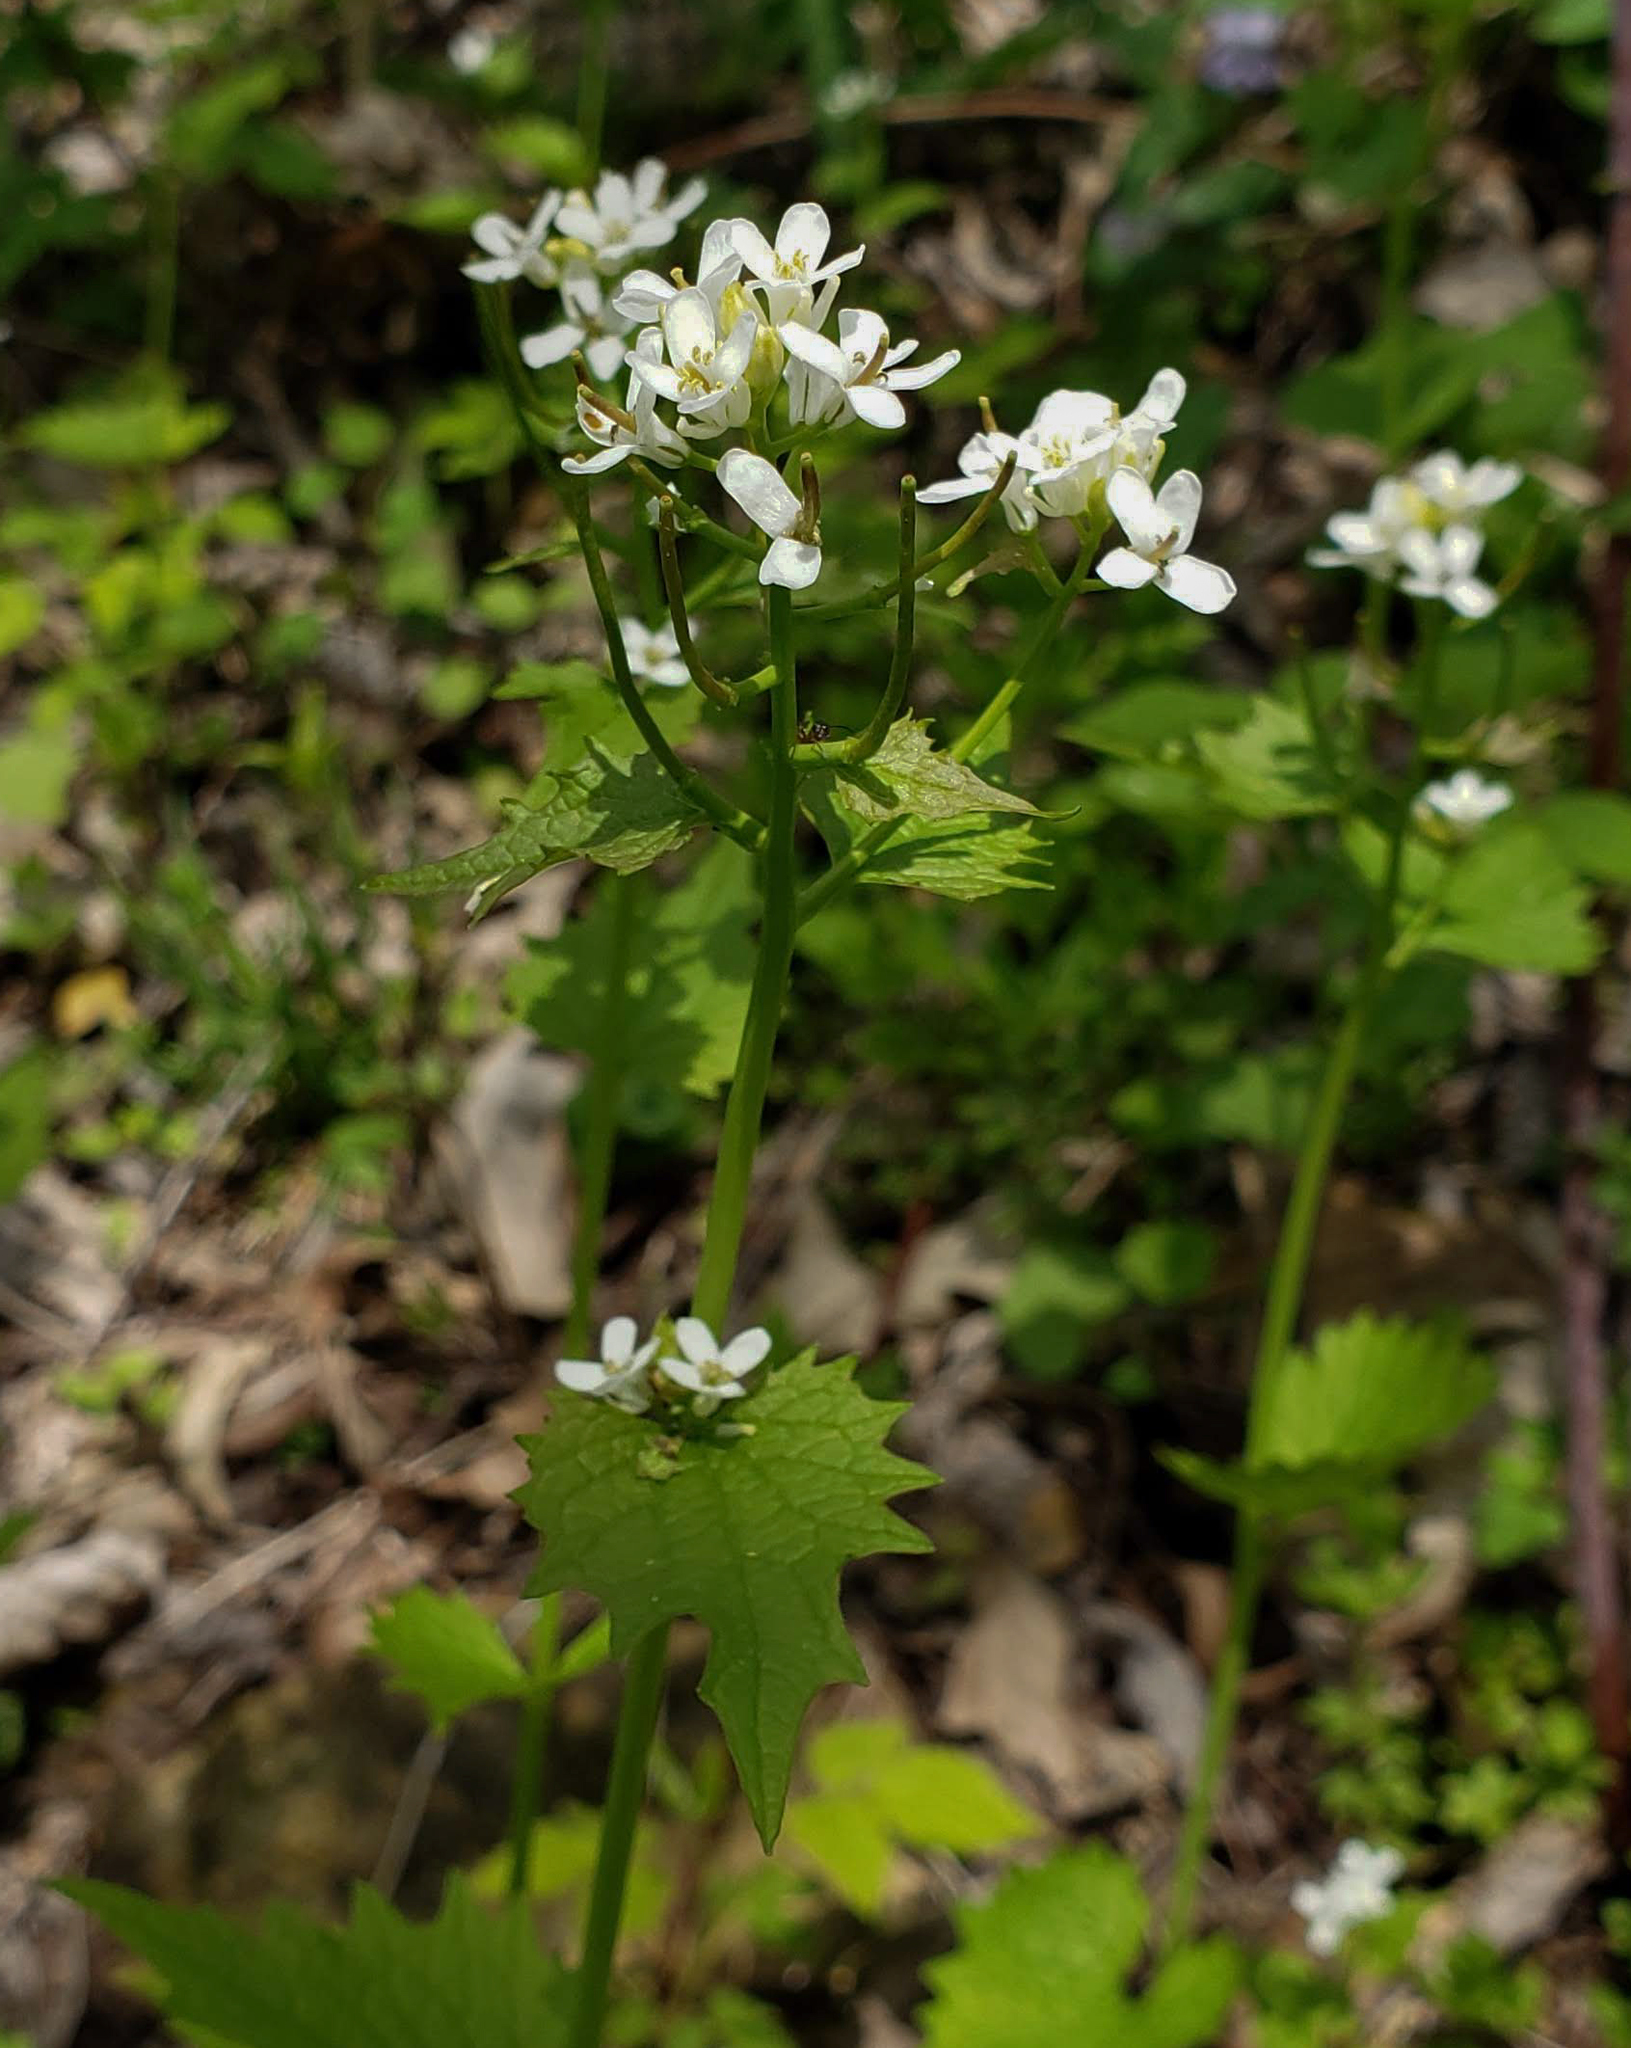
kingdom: Plantae
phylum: Tracheophyta
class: Magnoliopsida
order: Brassicales
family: Brassicaceae
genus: Alliaria
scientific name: Alliaria petiolata
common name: Garlic mustard
